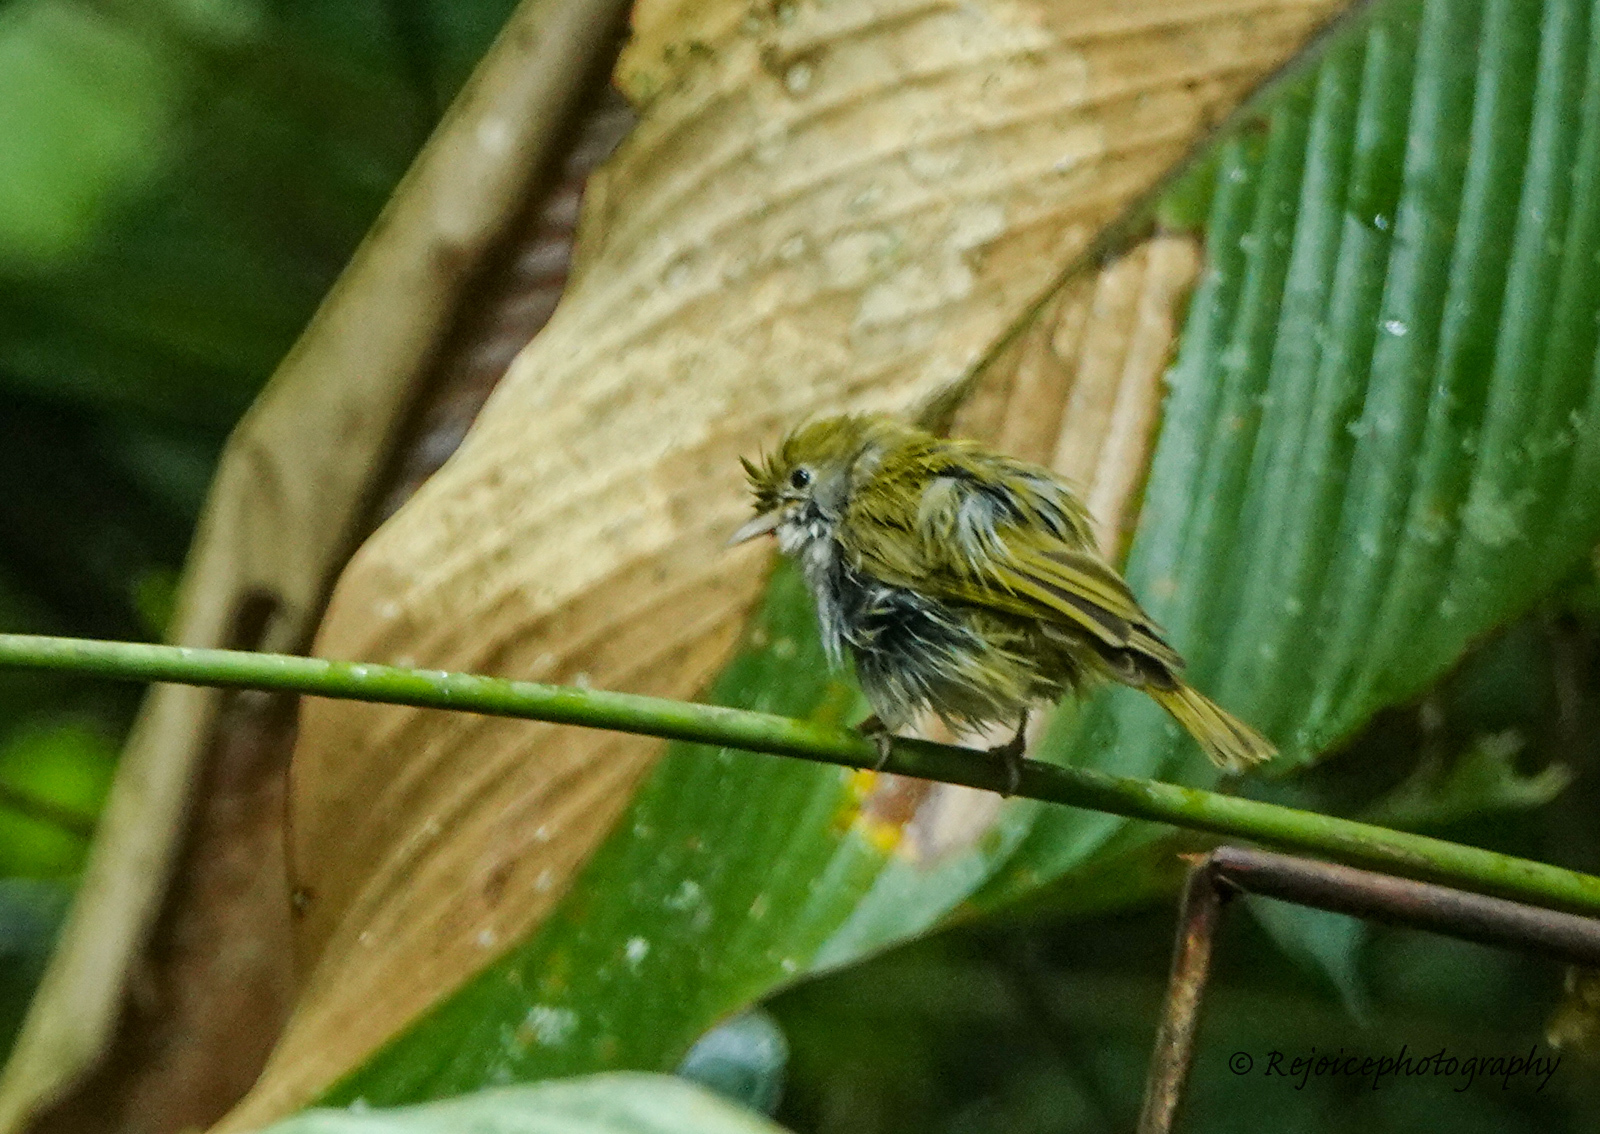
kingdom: Animalia
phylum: Chordata
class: Aves
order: Passeriformes
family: Vireonidae
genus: Erpornis
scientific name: Erpornis zantholeuca
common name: White-bellied erpornis
